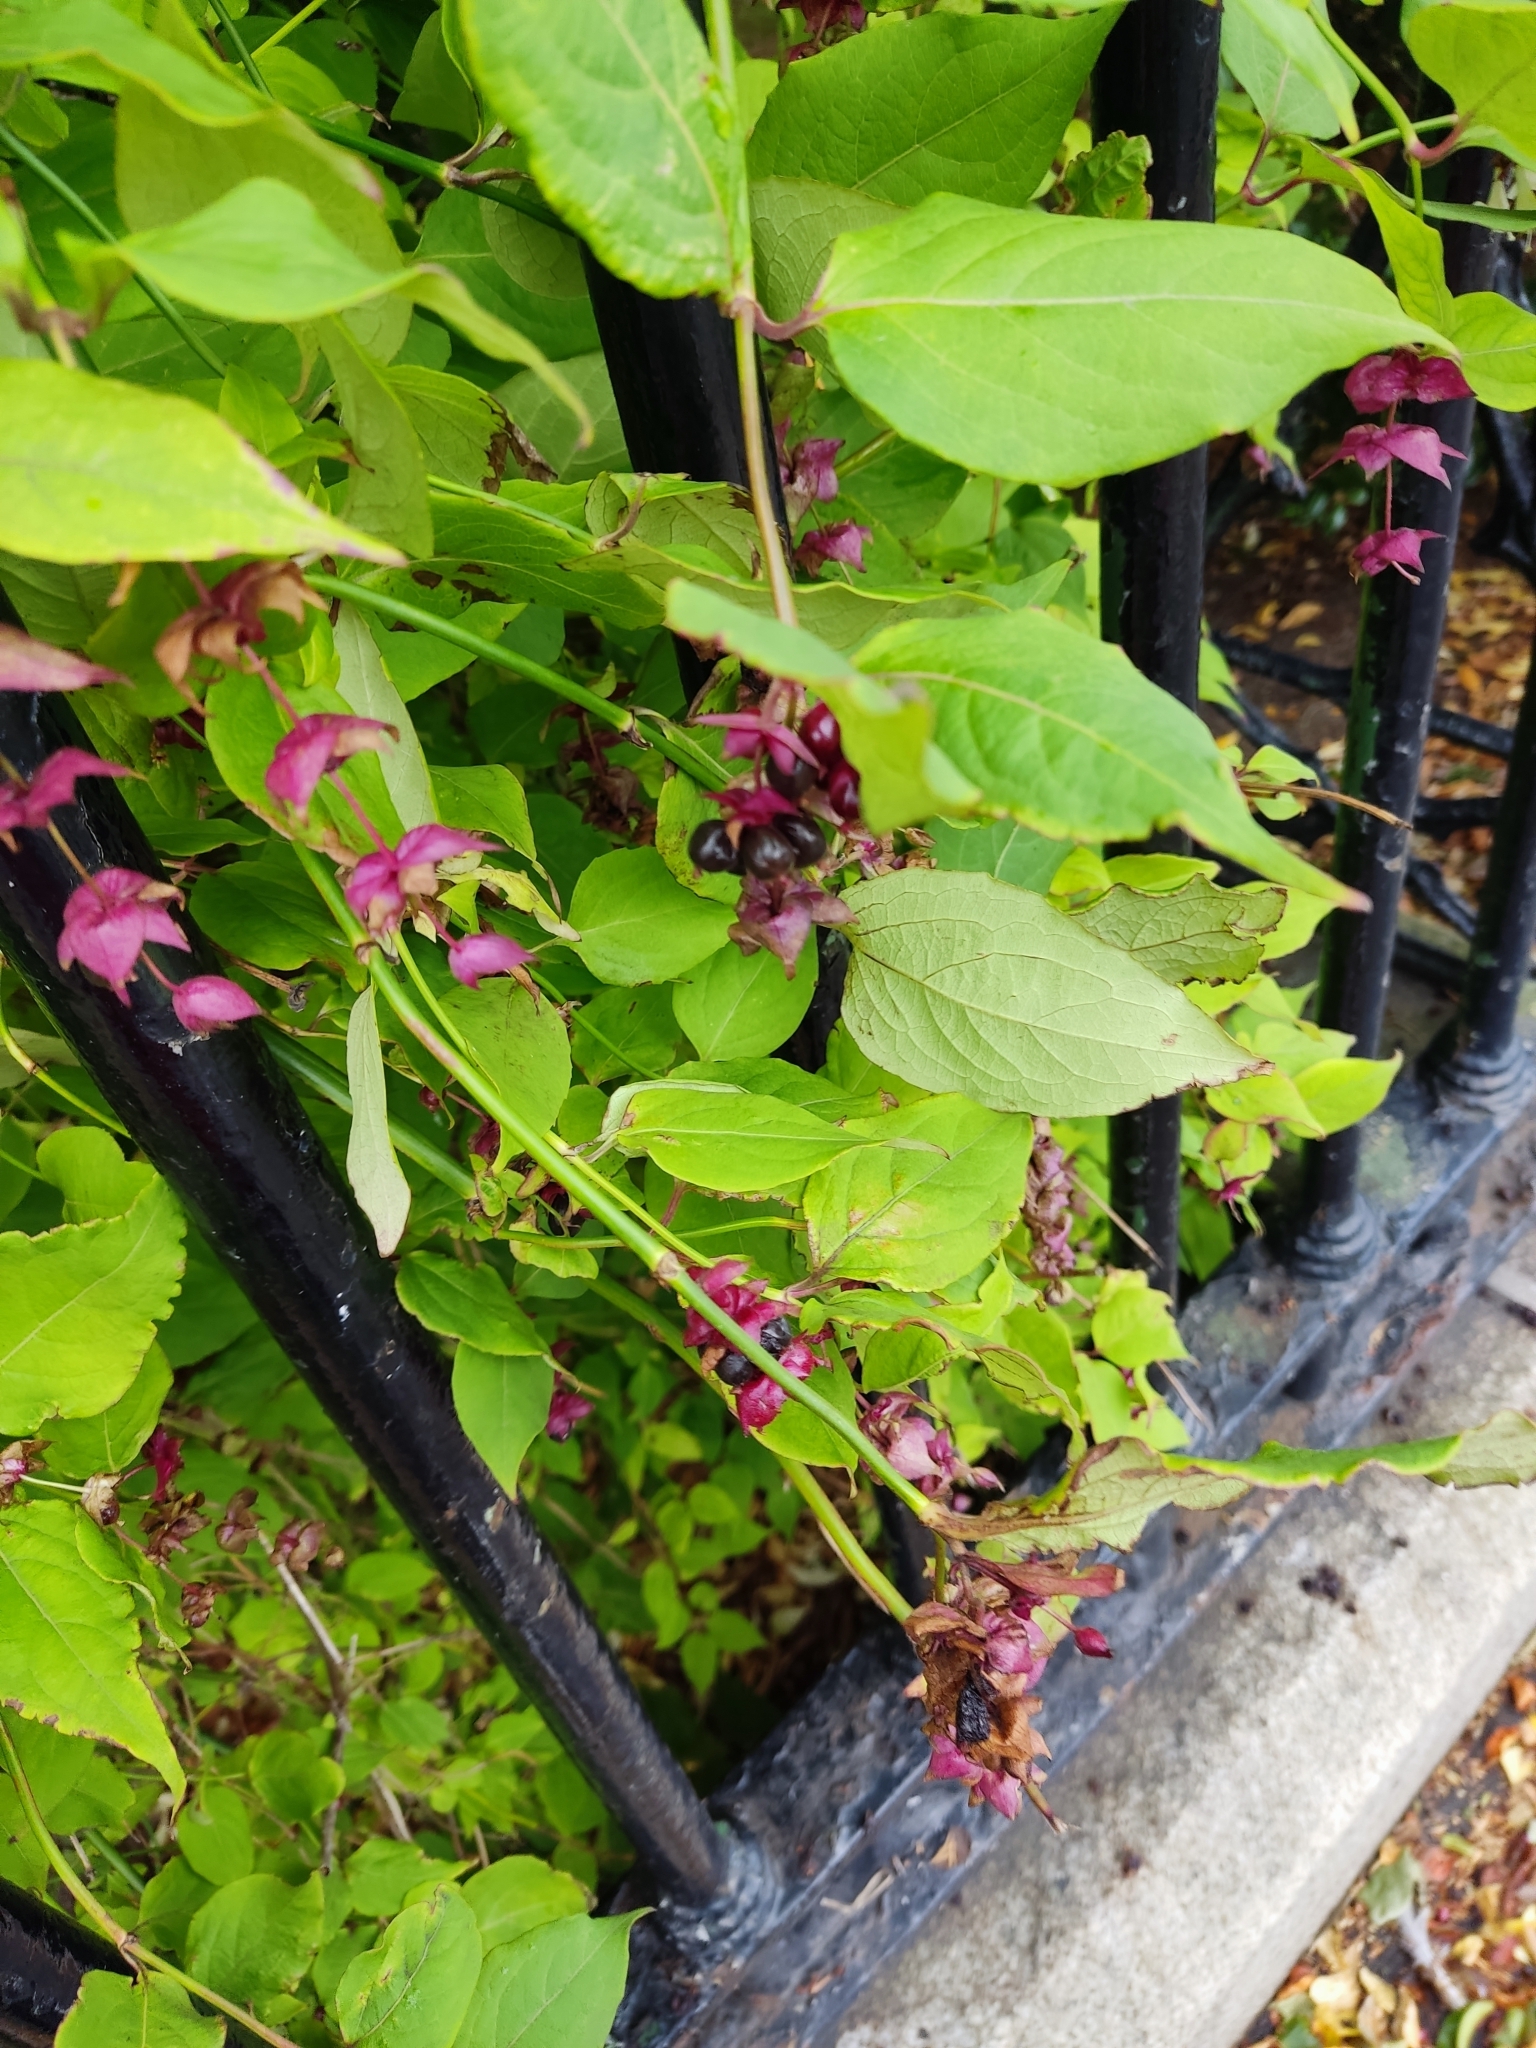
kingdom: Plantae
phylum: Tracheophyta
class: Magnoliopsida
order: Dipsacales
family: Caprifoliaceae
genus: Leycesteria
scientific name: Leycesteria formosa
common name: Himalayan honeysuckle
